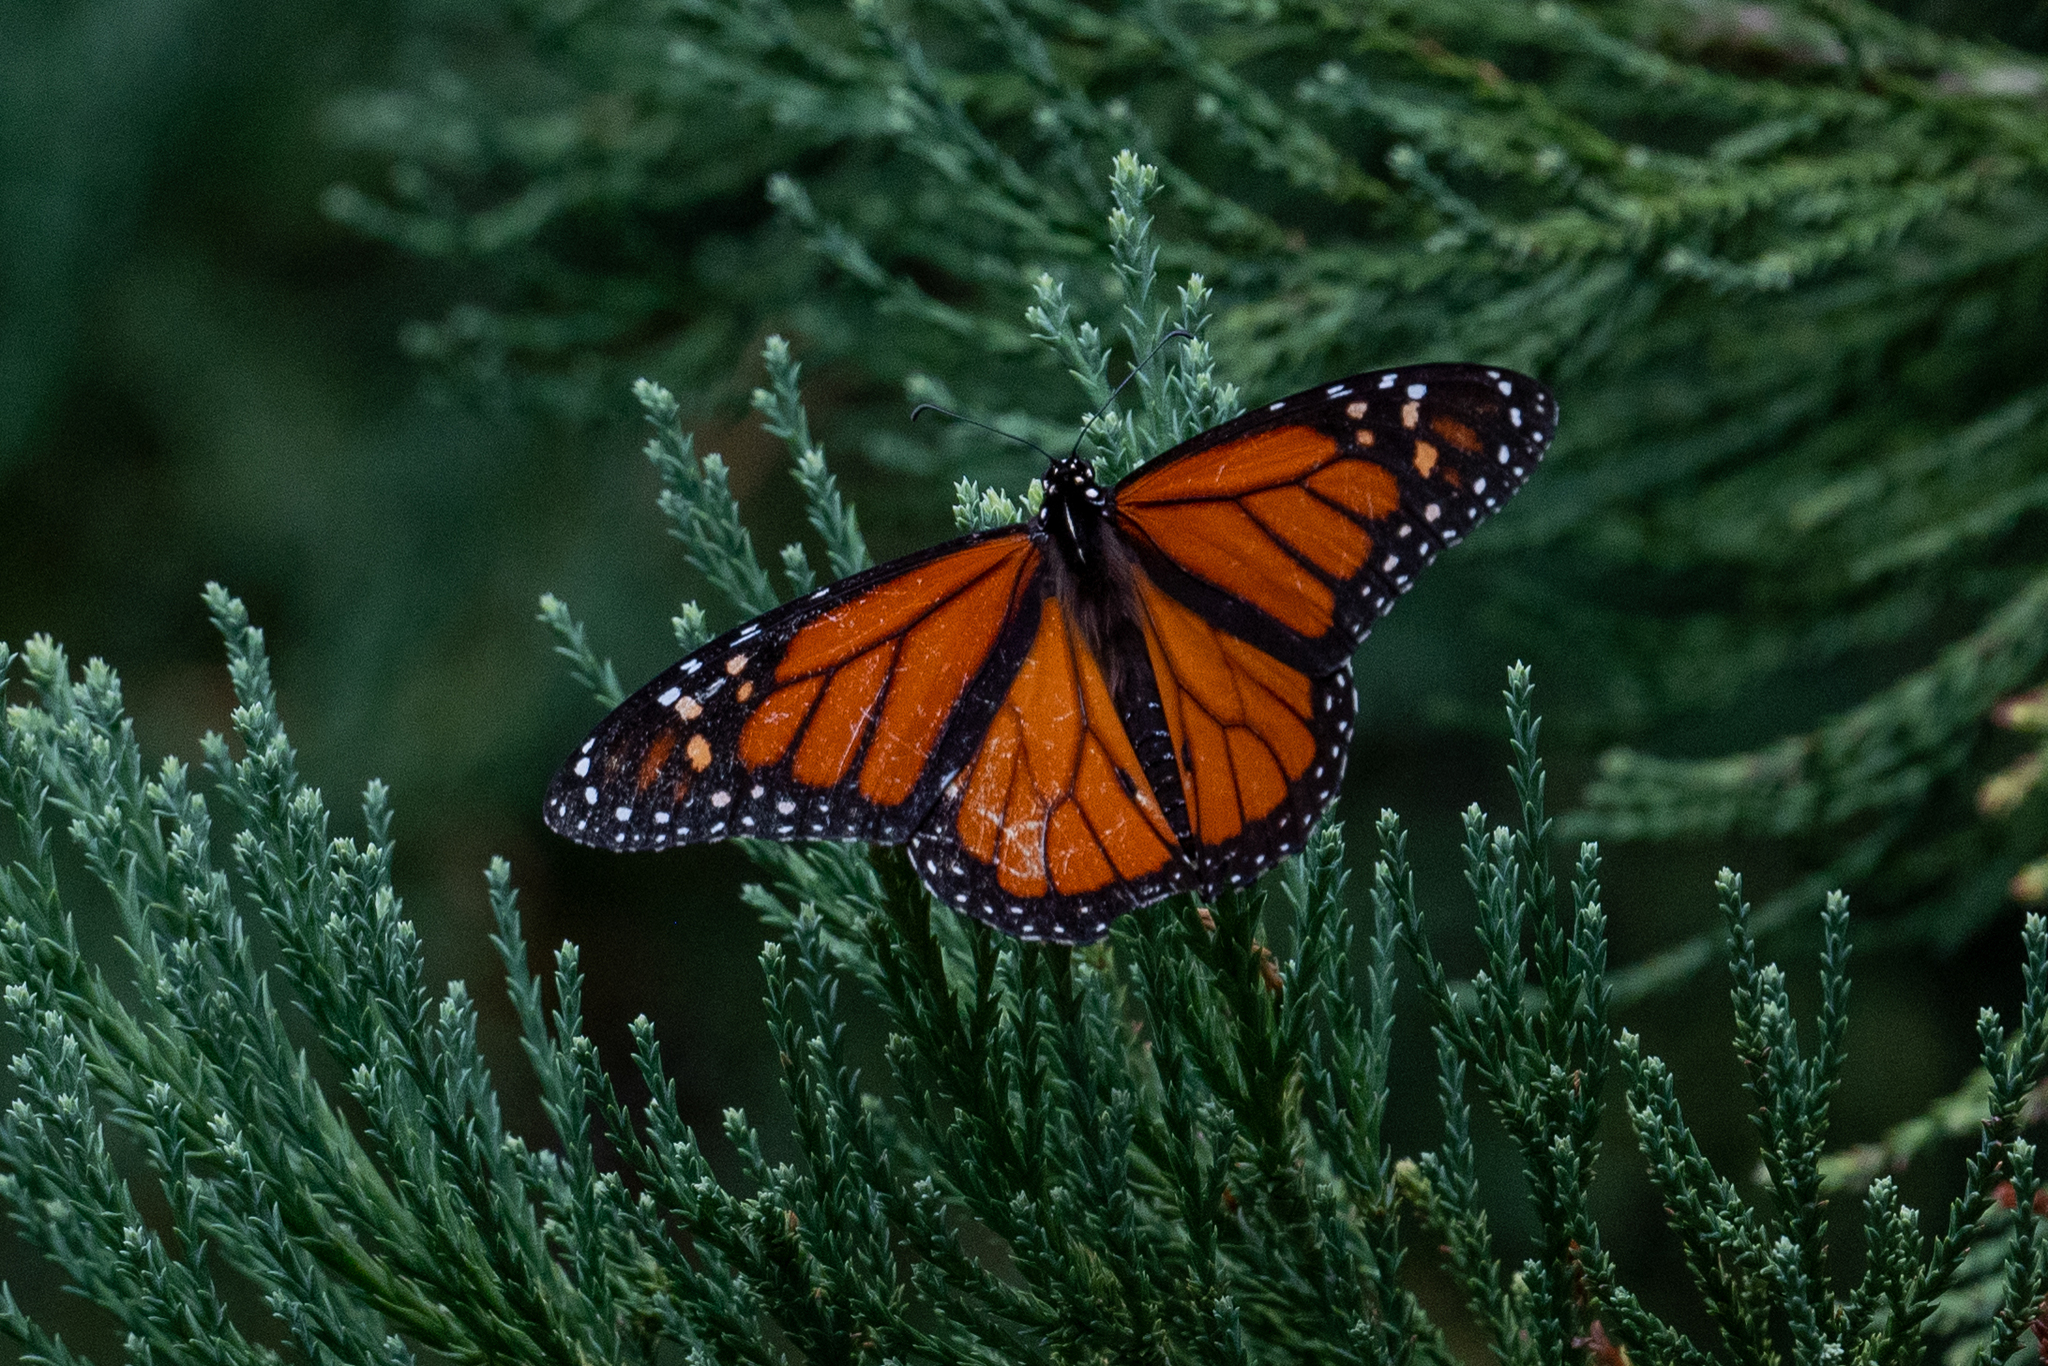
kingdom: Animalia
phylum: Arthropoda
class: Insecta
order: Lepidoptera
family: Nymphalidae
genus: Danaus
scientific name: Danaus plexippus
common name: Monarch
